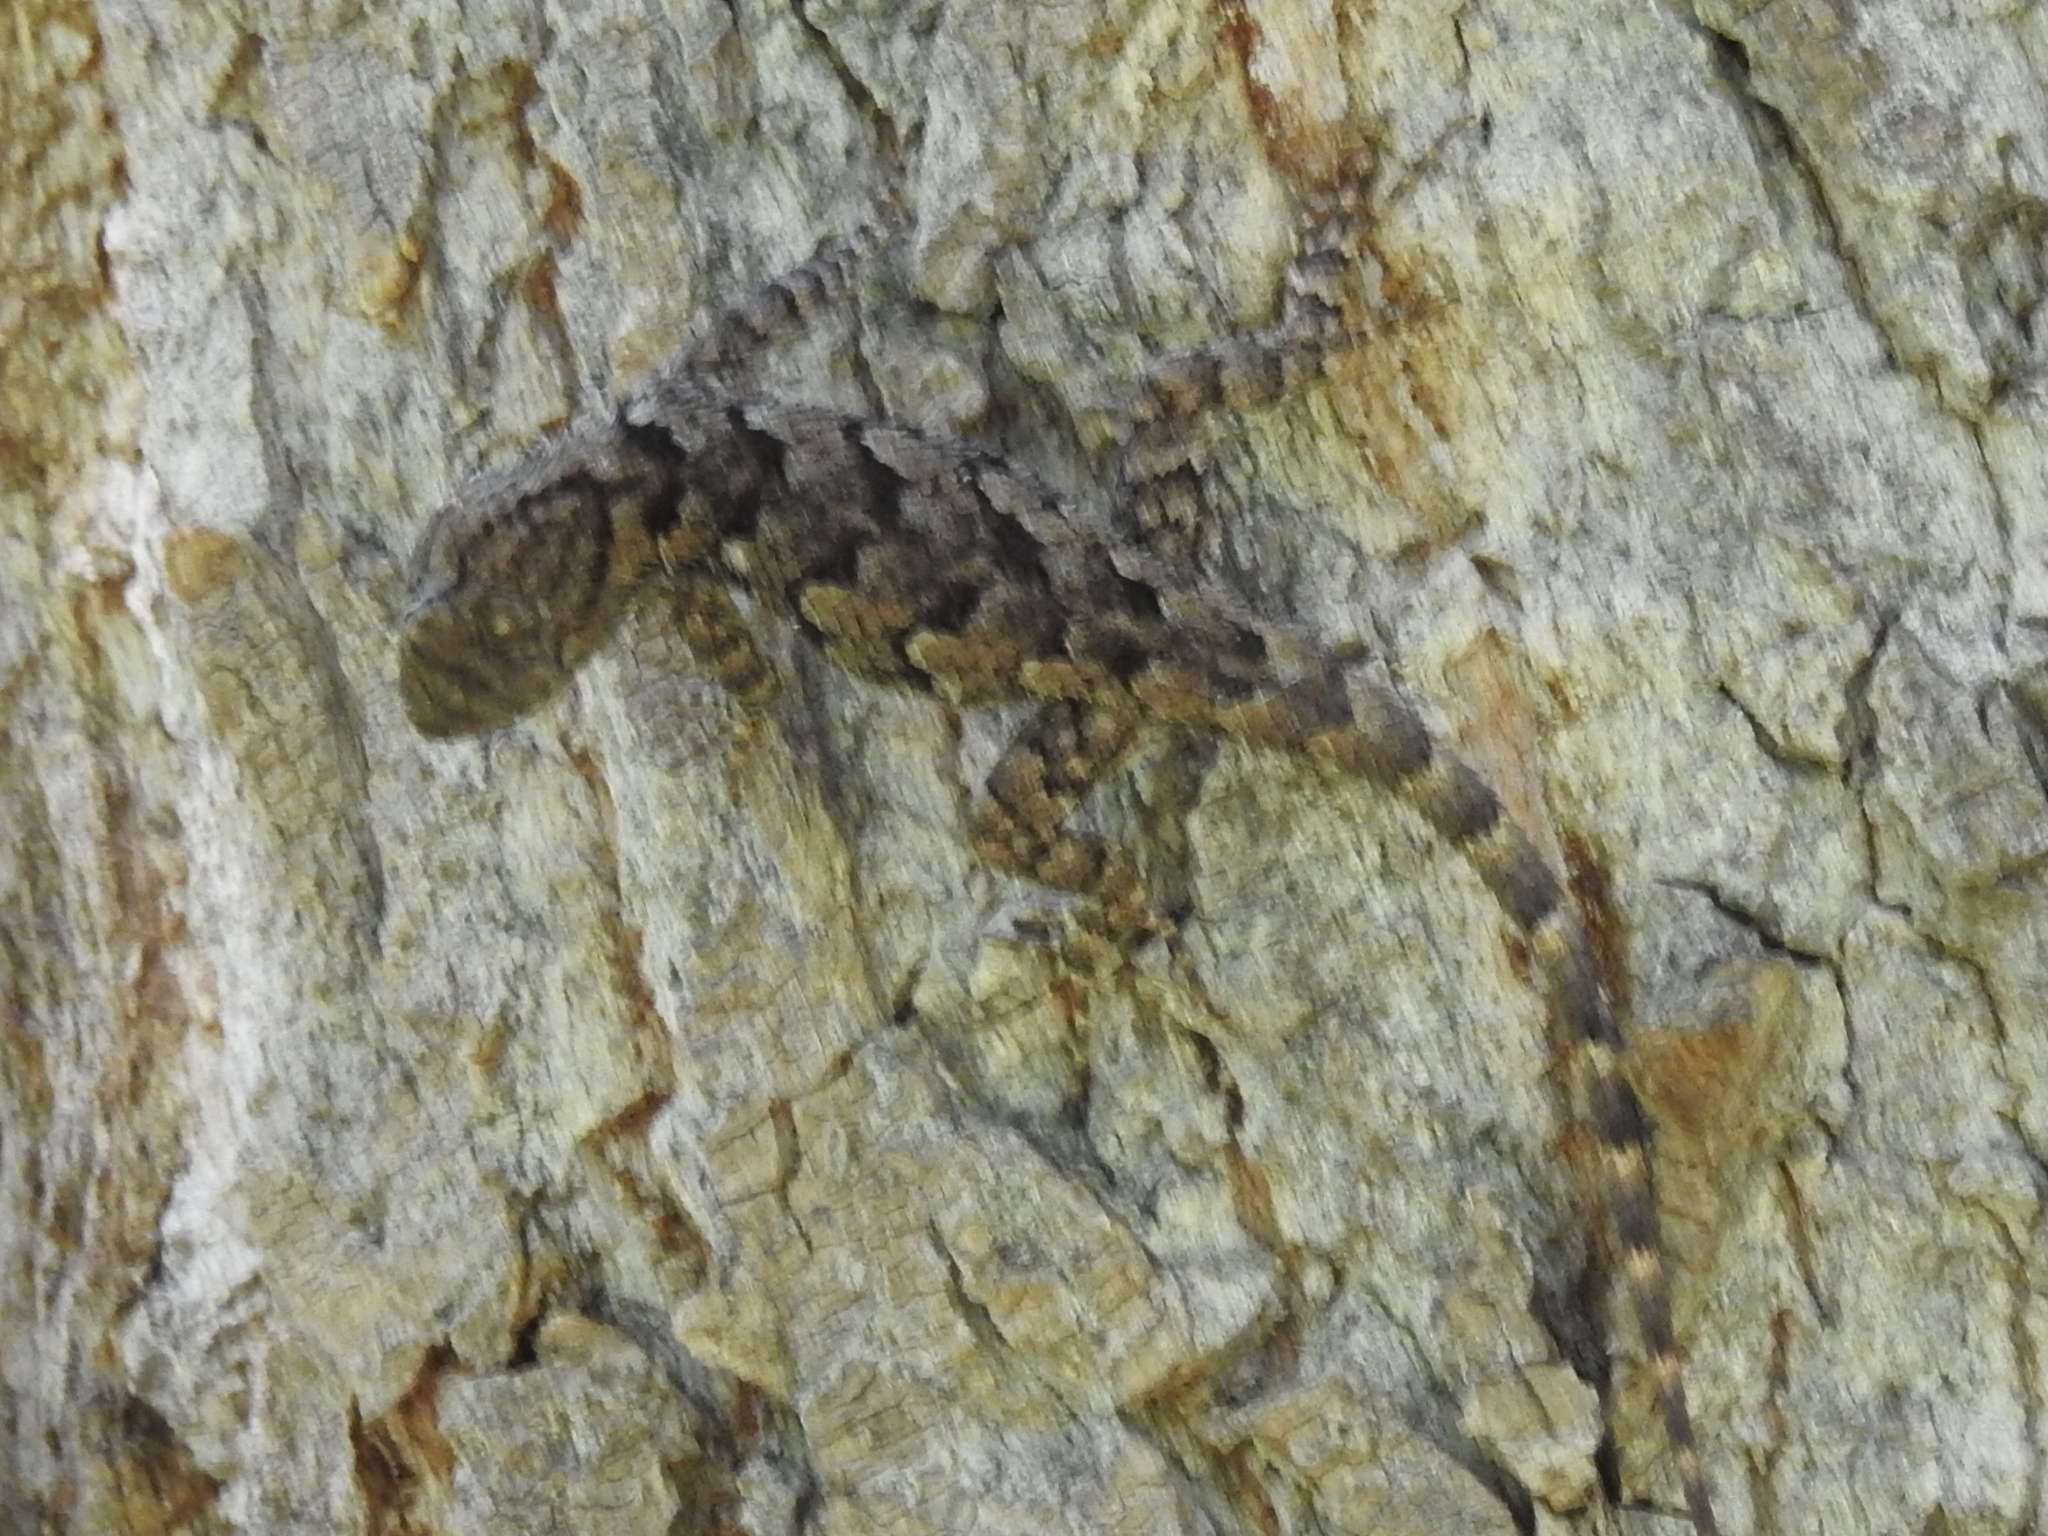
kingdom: Animalia
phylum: Chordata
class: Squamata
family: Phrynosomatidae
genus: Sceloporus
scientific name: Sceloporus clarkii
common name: Clark's spiny lizard
